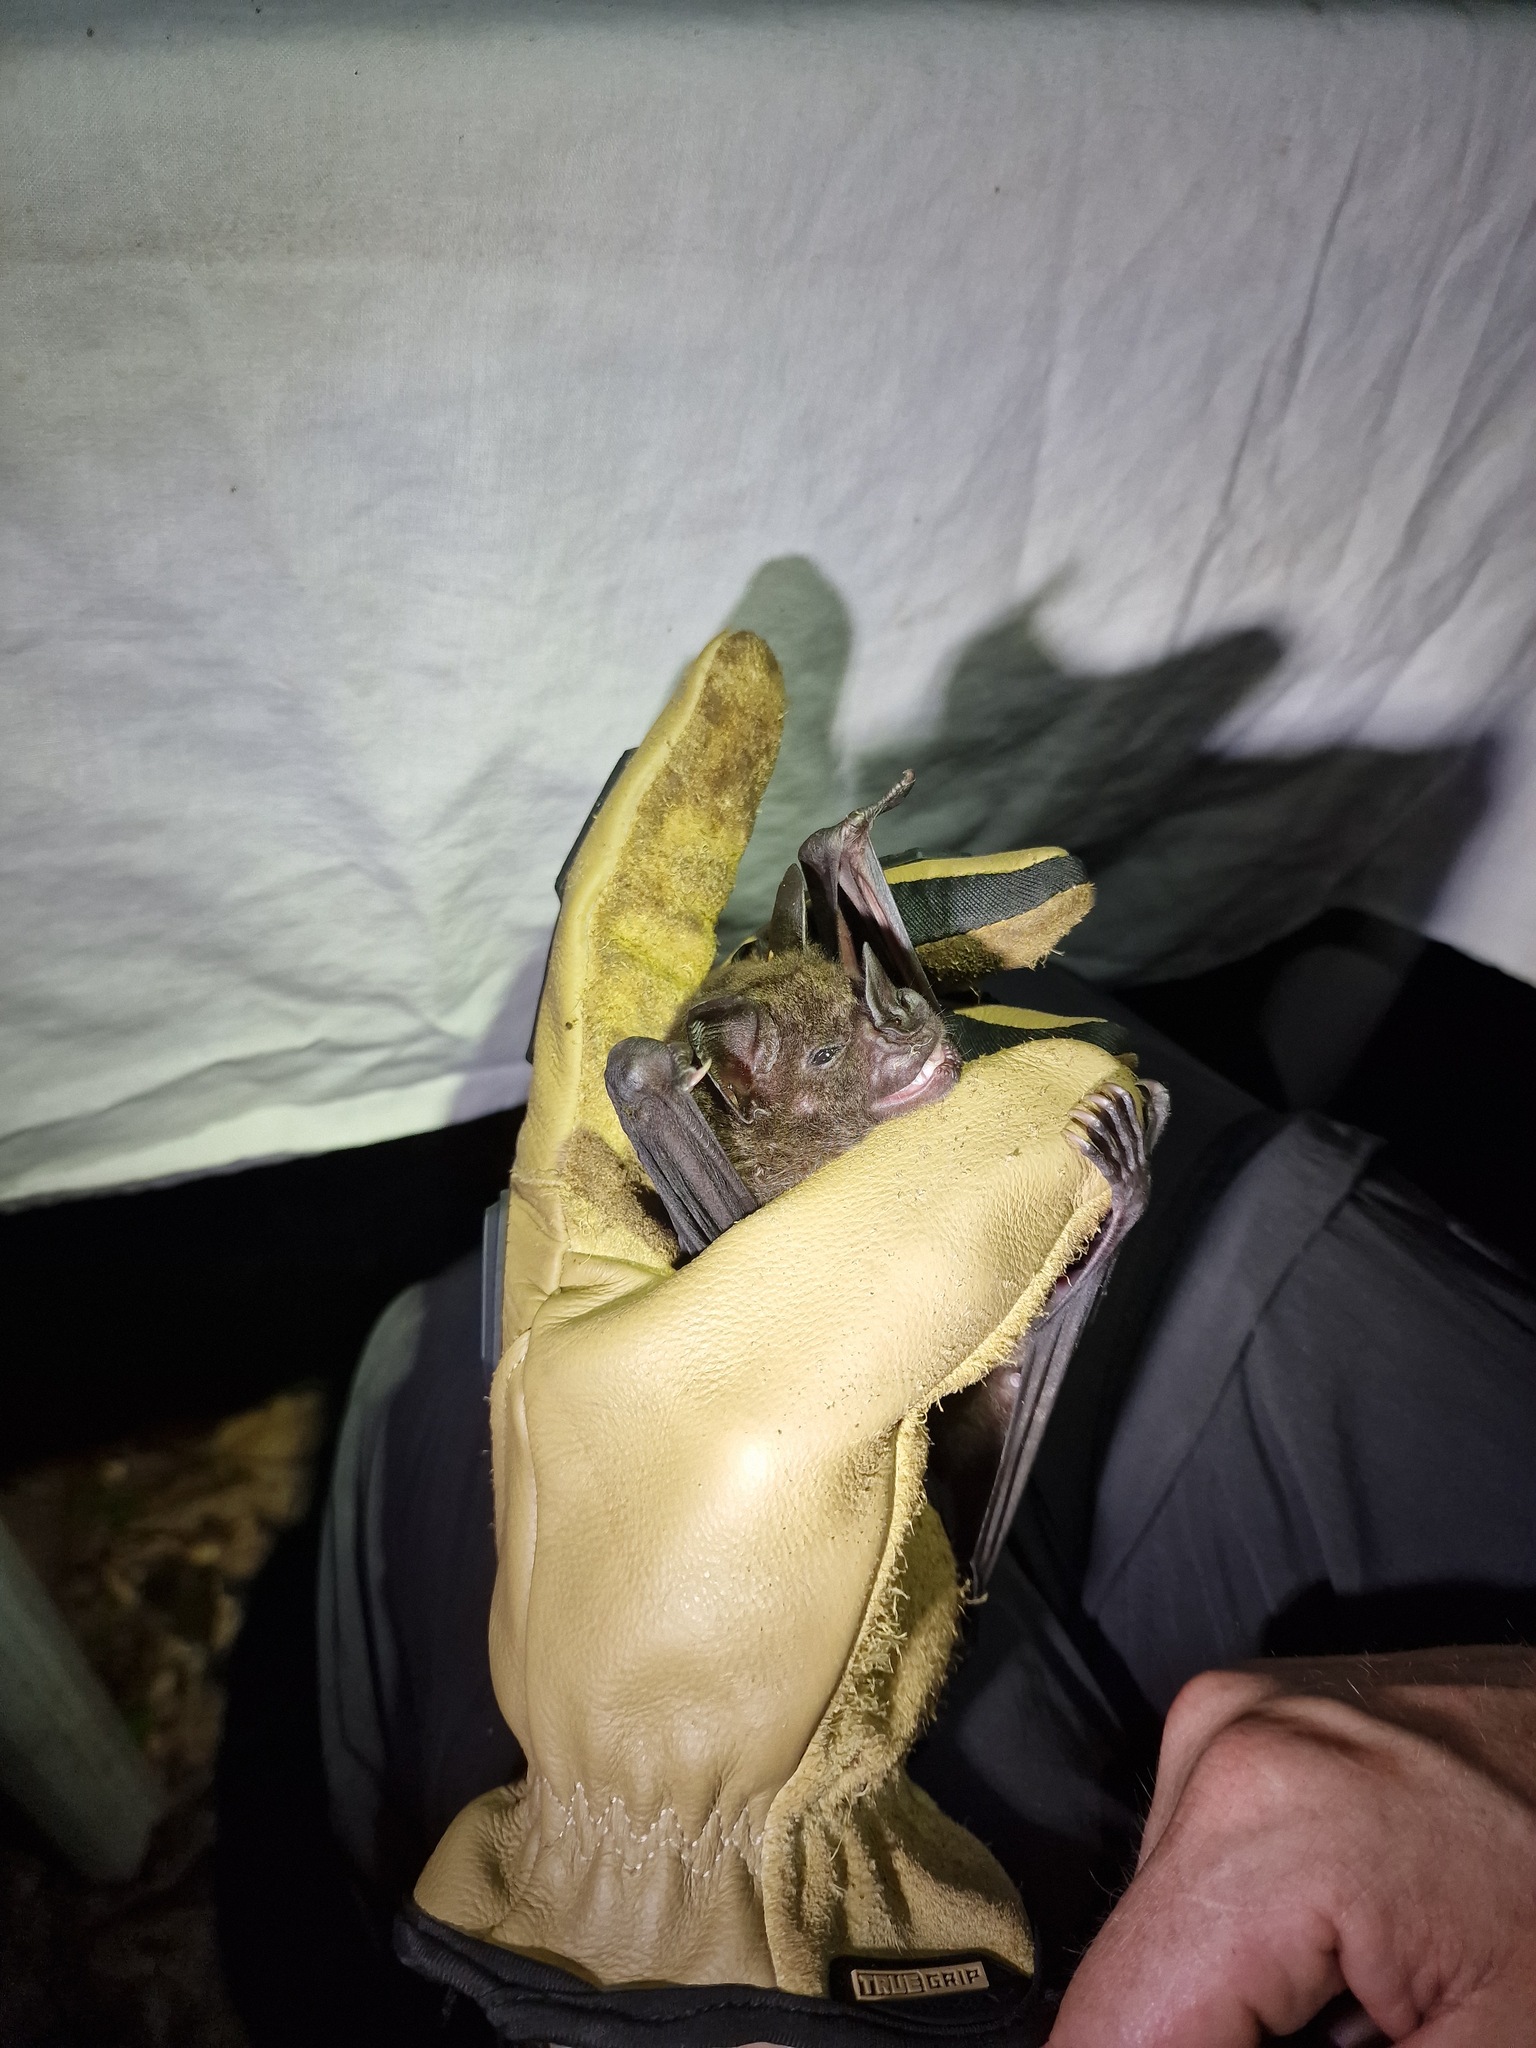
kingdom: Animalia
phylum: Chordata
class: Mammalia
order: Chiroptera
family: Phyllostomidae
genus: Phyllostomus
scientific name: Phyllostomus hastatus
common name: Greater spear-nosed bat
